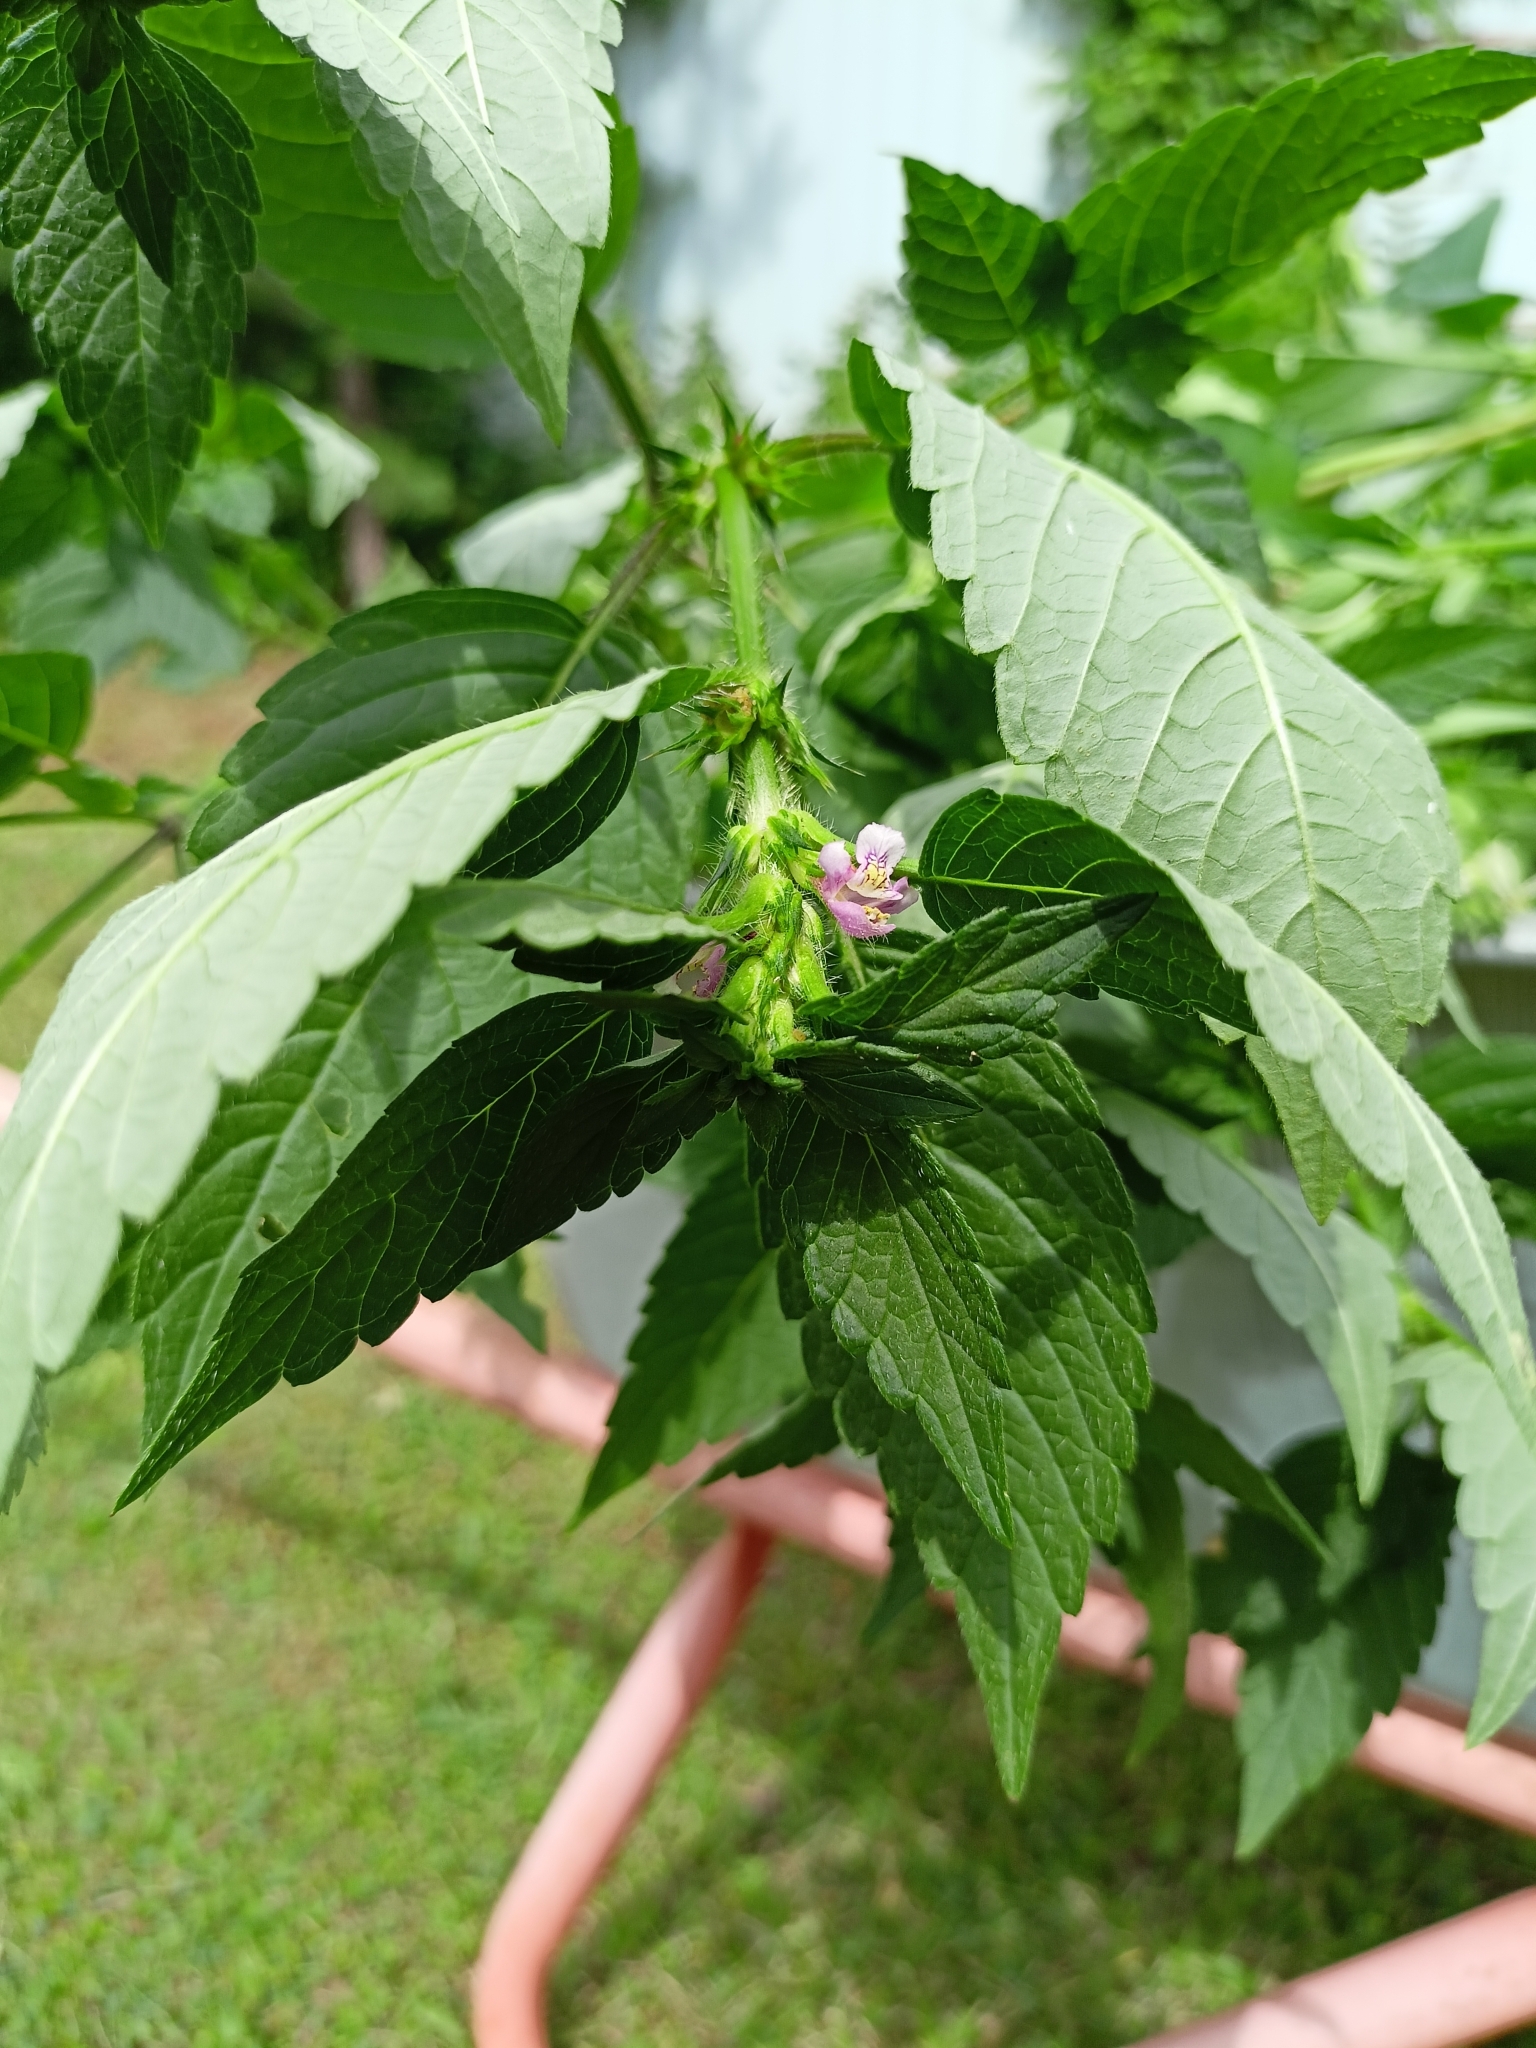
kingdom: Plantae
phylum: Tracheophyta
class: Magnoliopsida
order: Lamiales
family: Lamiaceae
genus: Galeopsis
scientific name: Galeopsis tetrahit
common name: Common hemp-nettle
